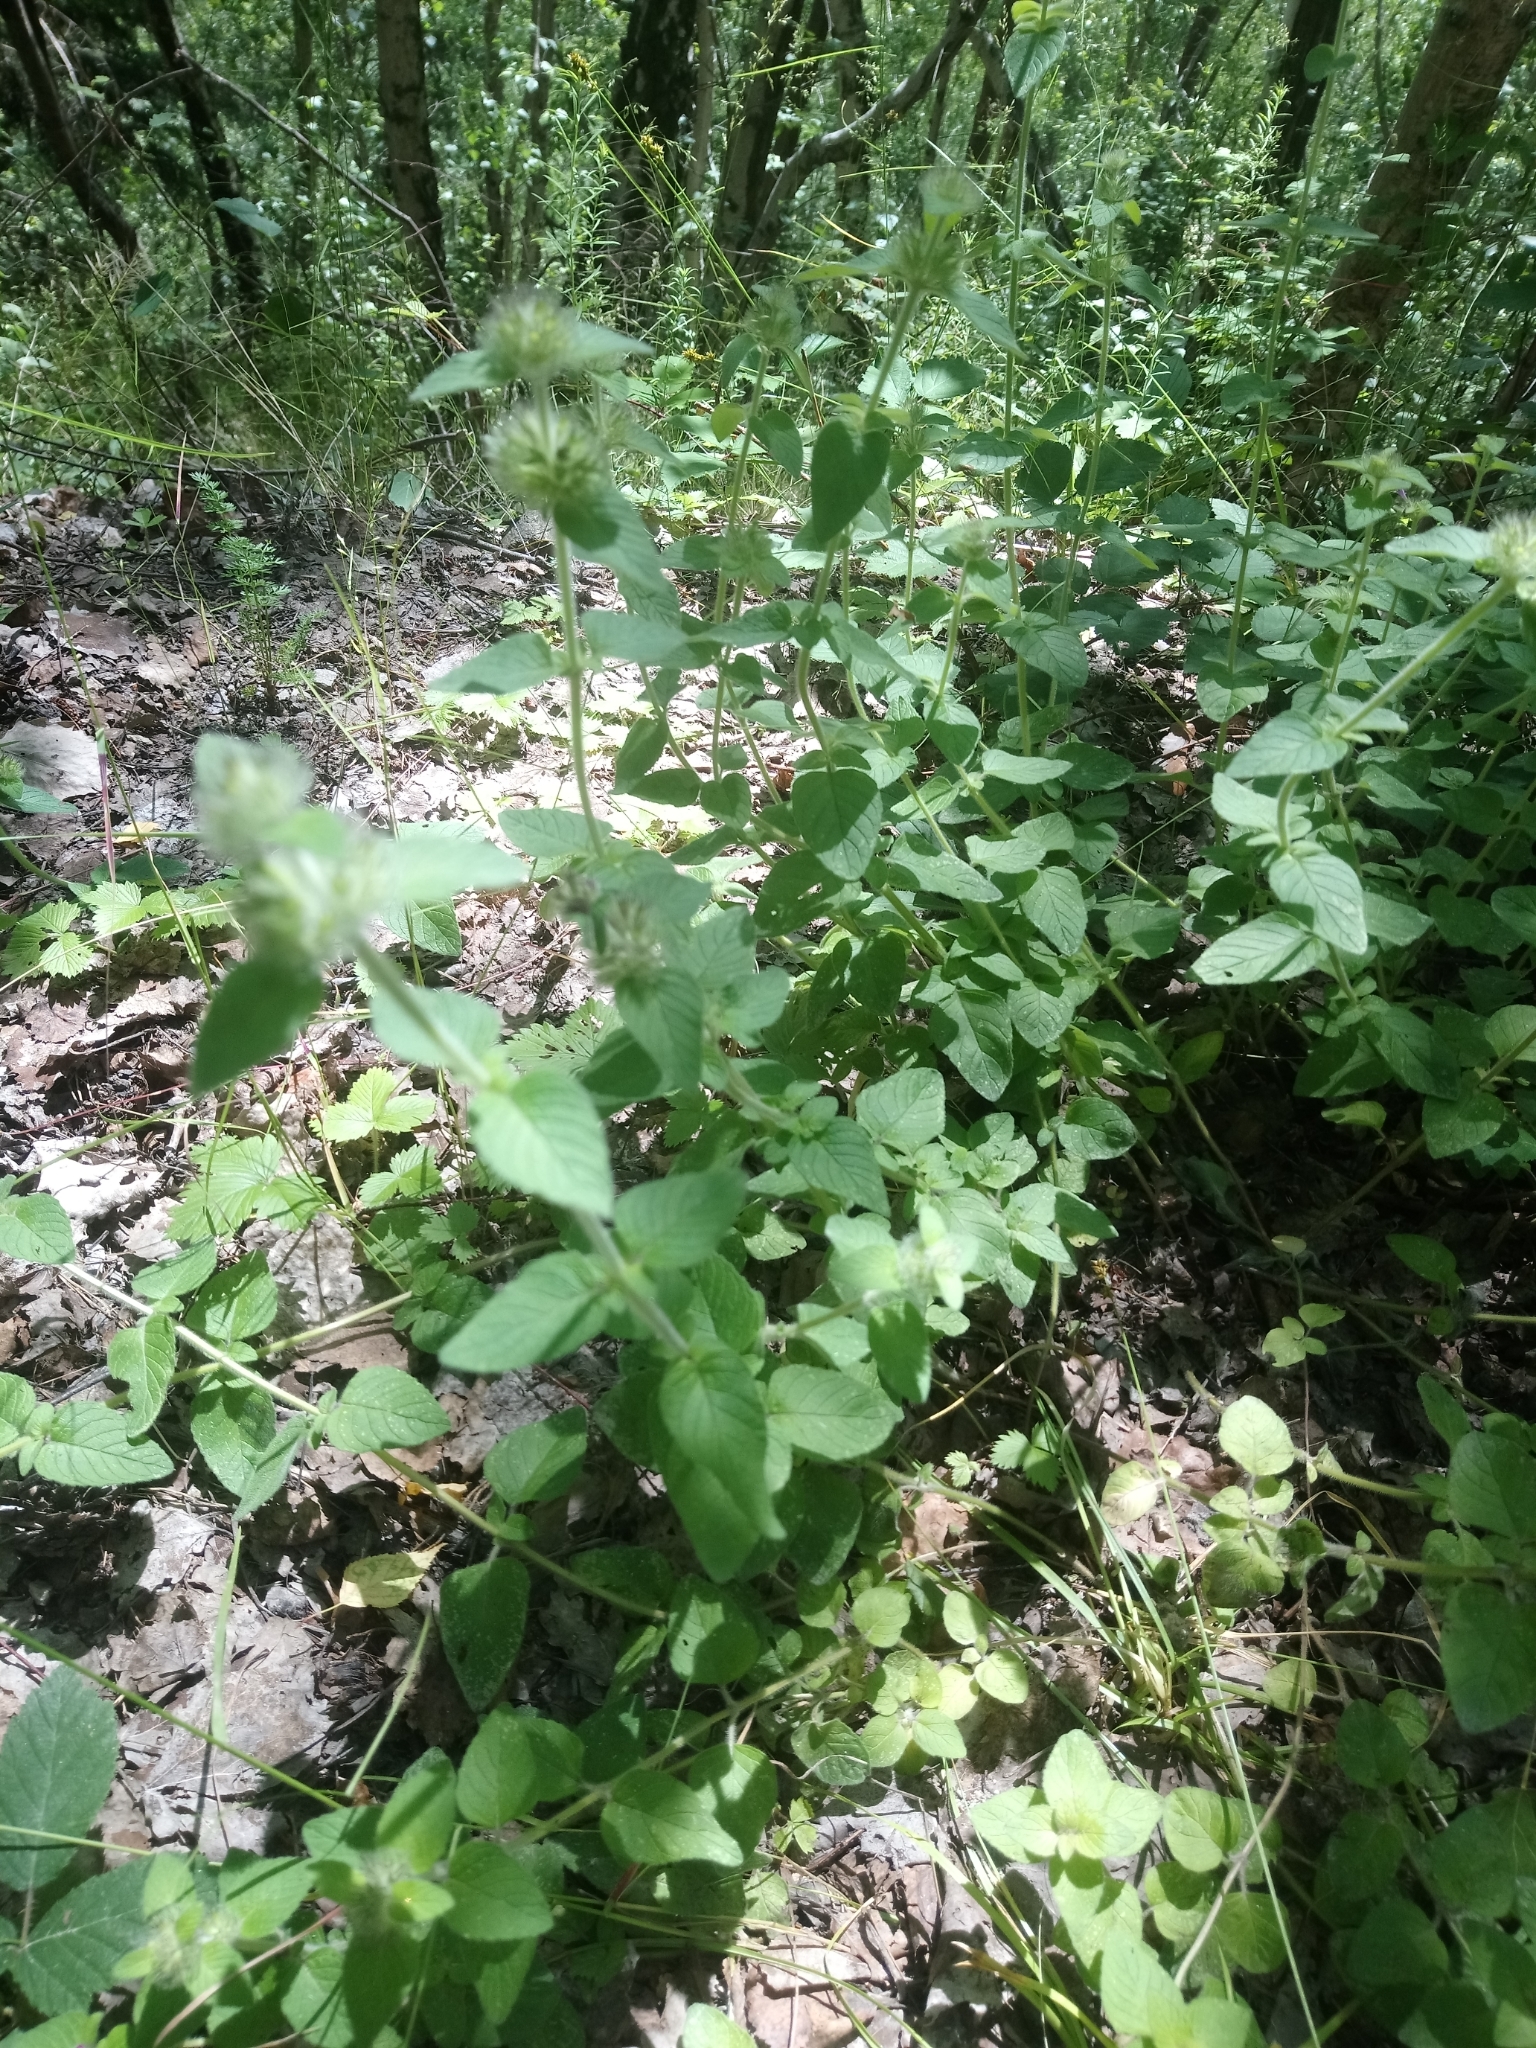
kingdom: Plantae
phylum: Tracheophyta
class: Magnoliopsida
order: Lamiales
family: Lamiaceae
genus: Clinopodium
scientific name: Clinopodium vulgare
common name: Wild basil
